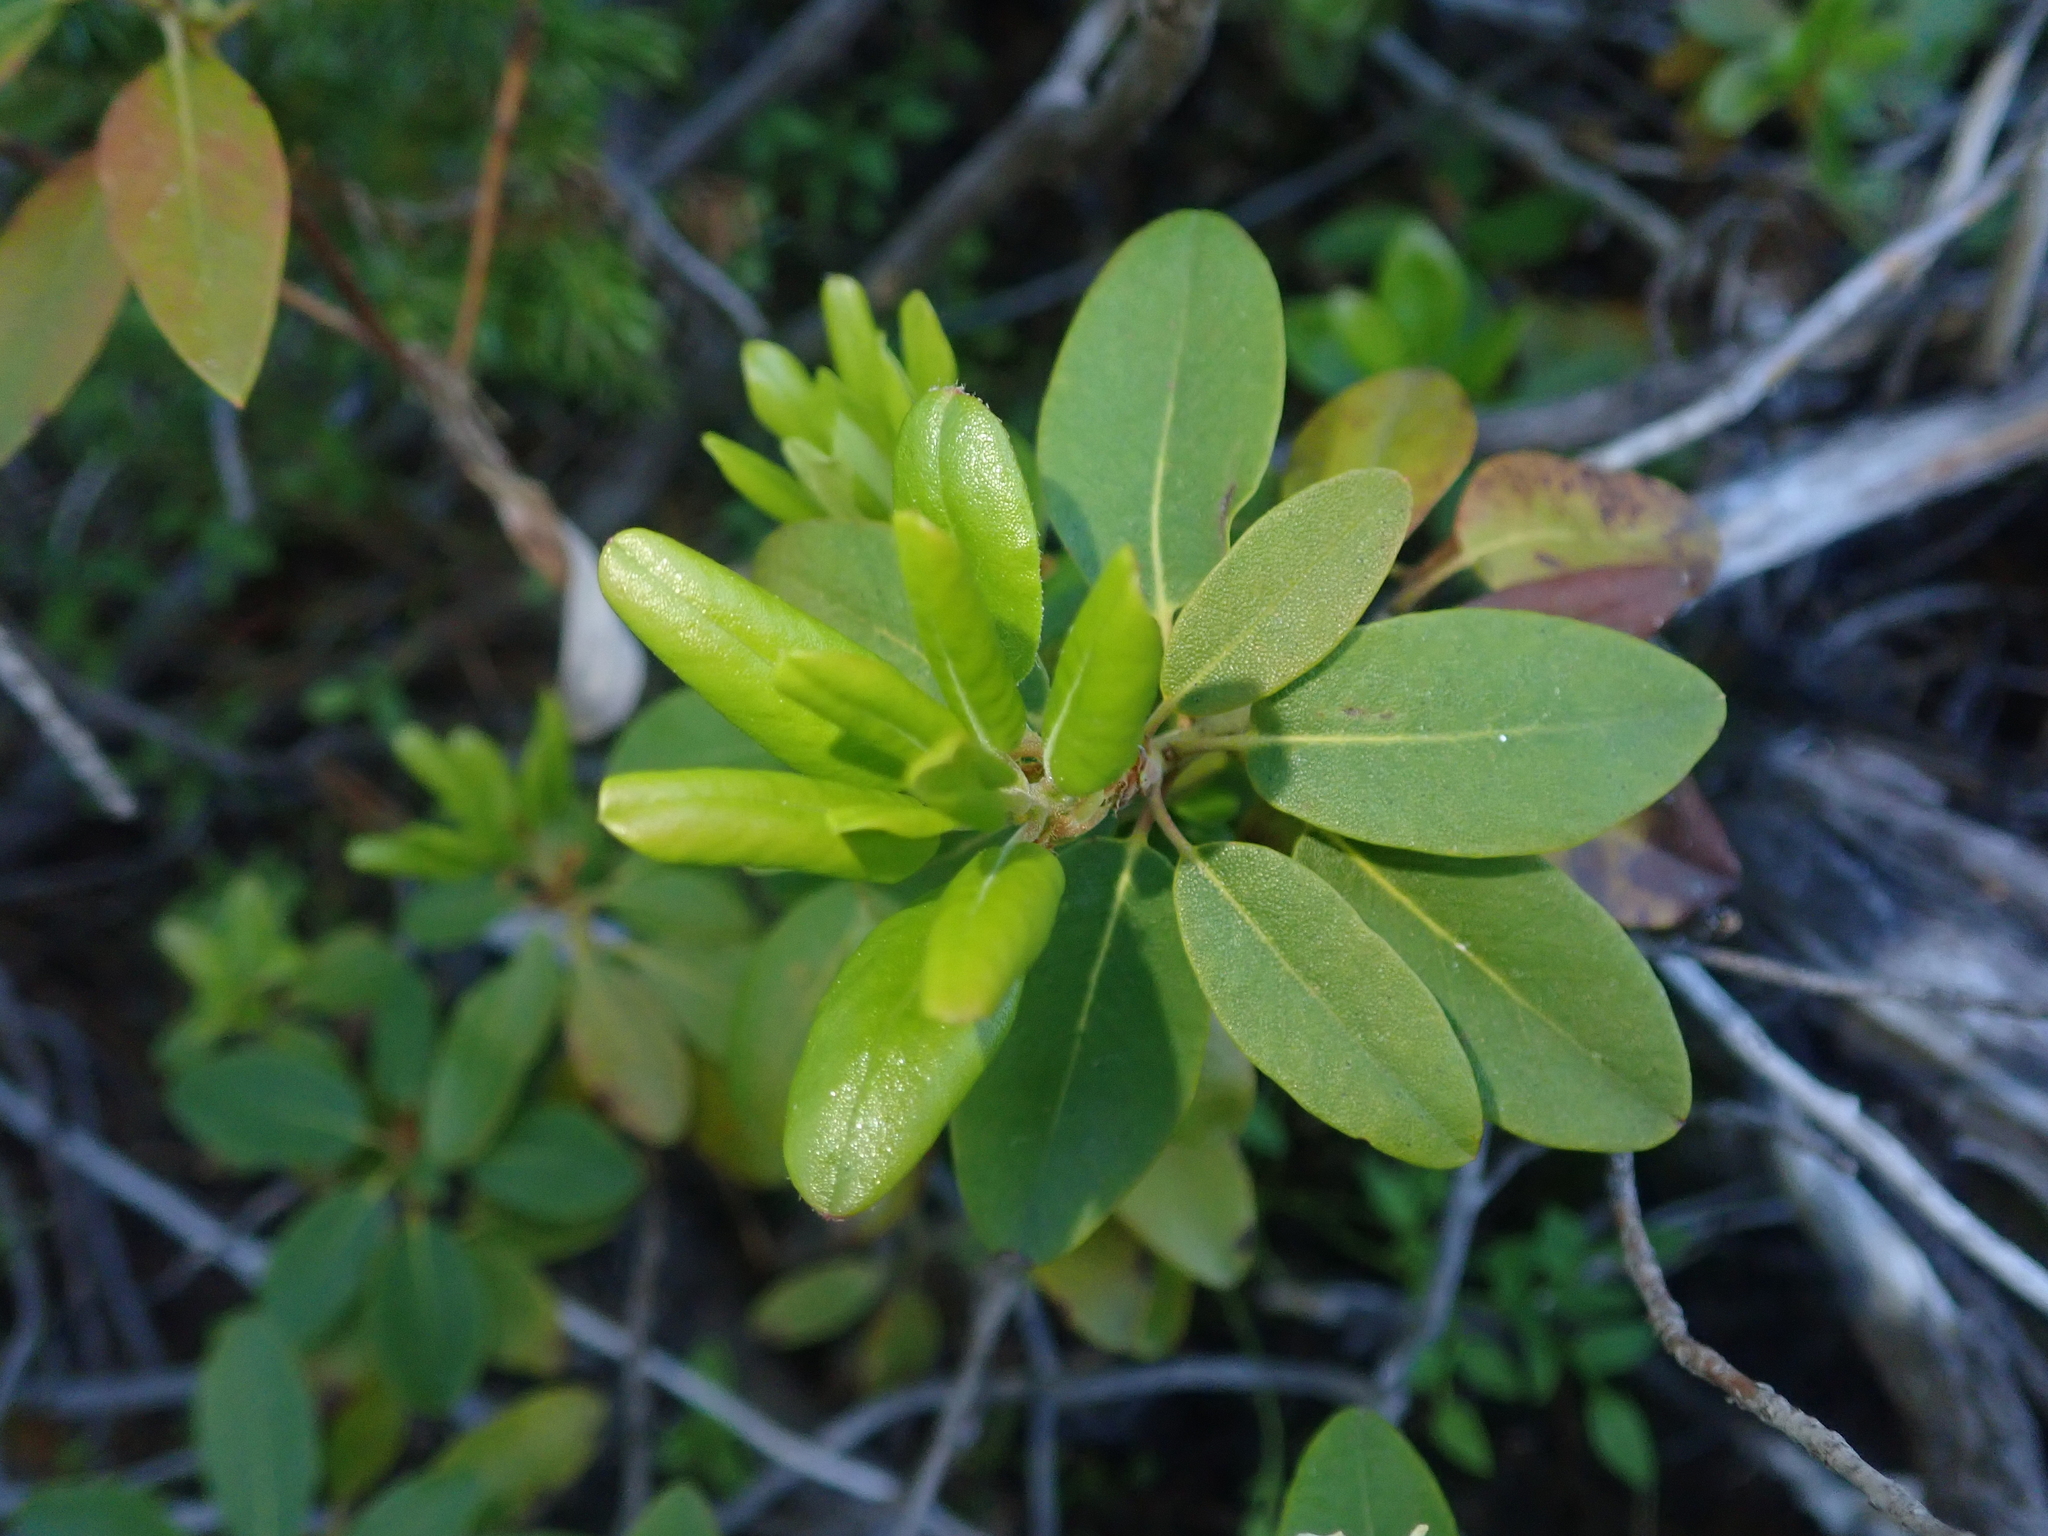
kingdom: Plantae
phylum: Tracheophyta
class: Magnoliopsida
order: Ericales
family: Ericaceae
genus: Rhododendron
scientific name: Rhododendron columbianum
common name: Western labrador tea
